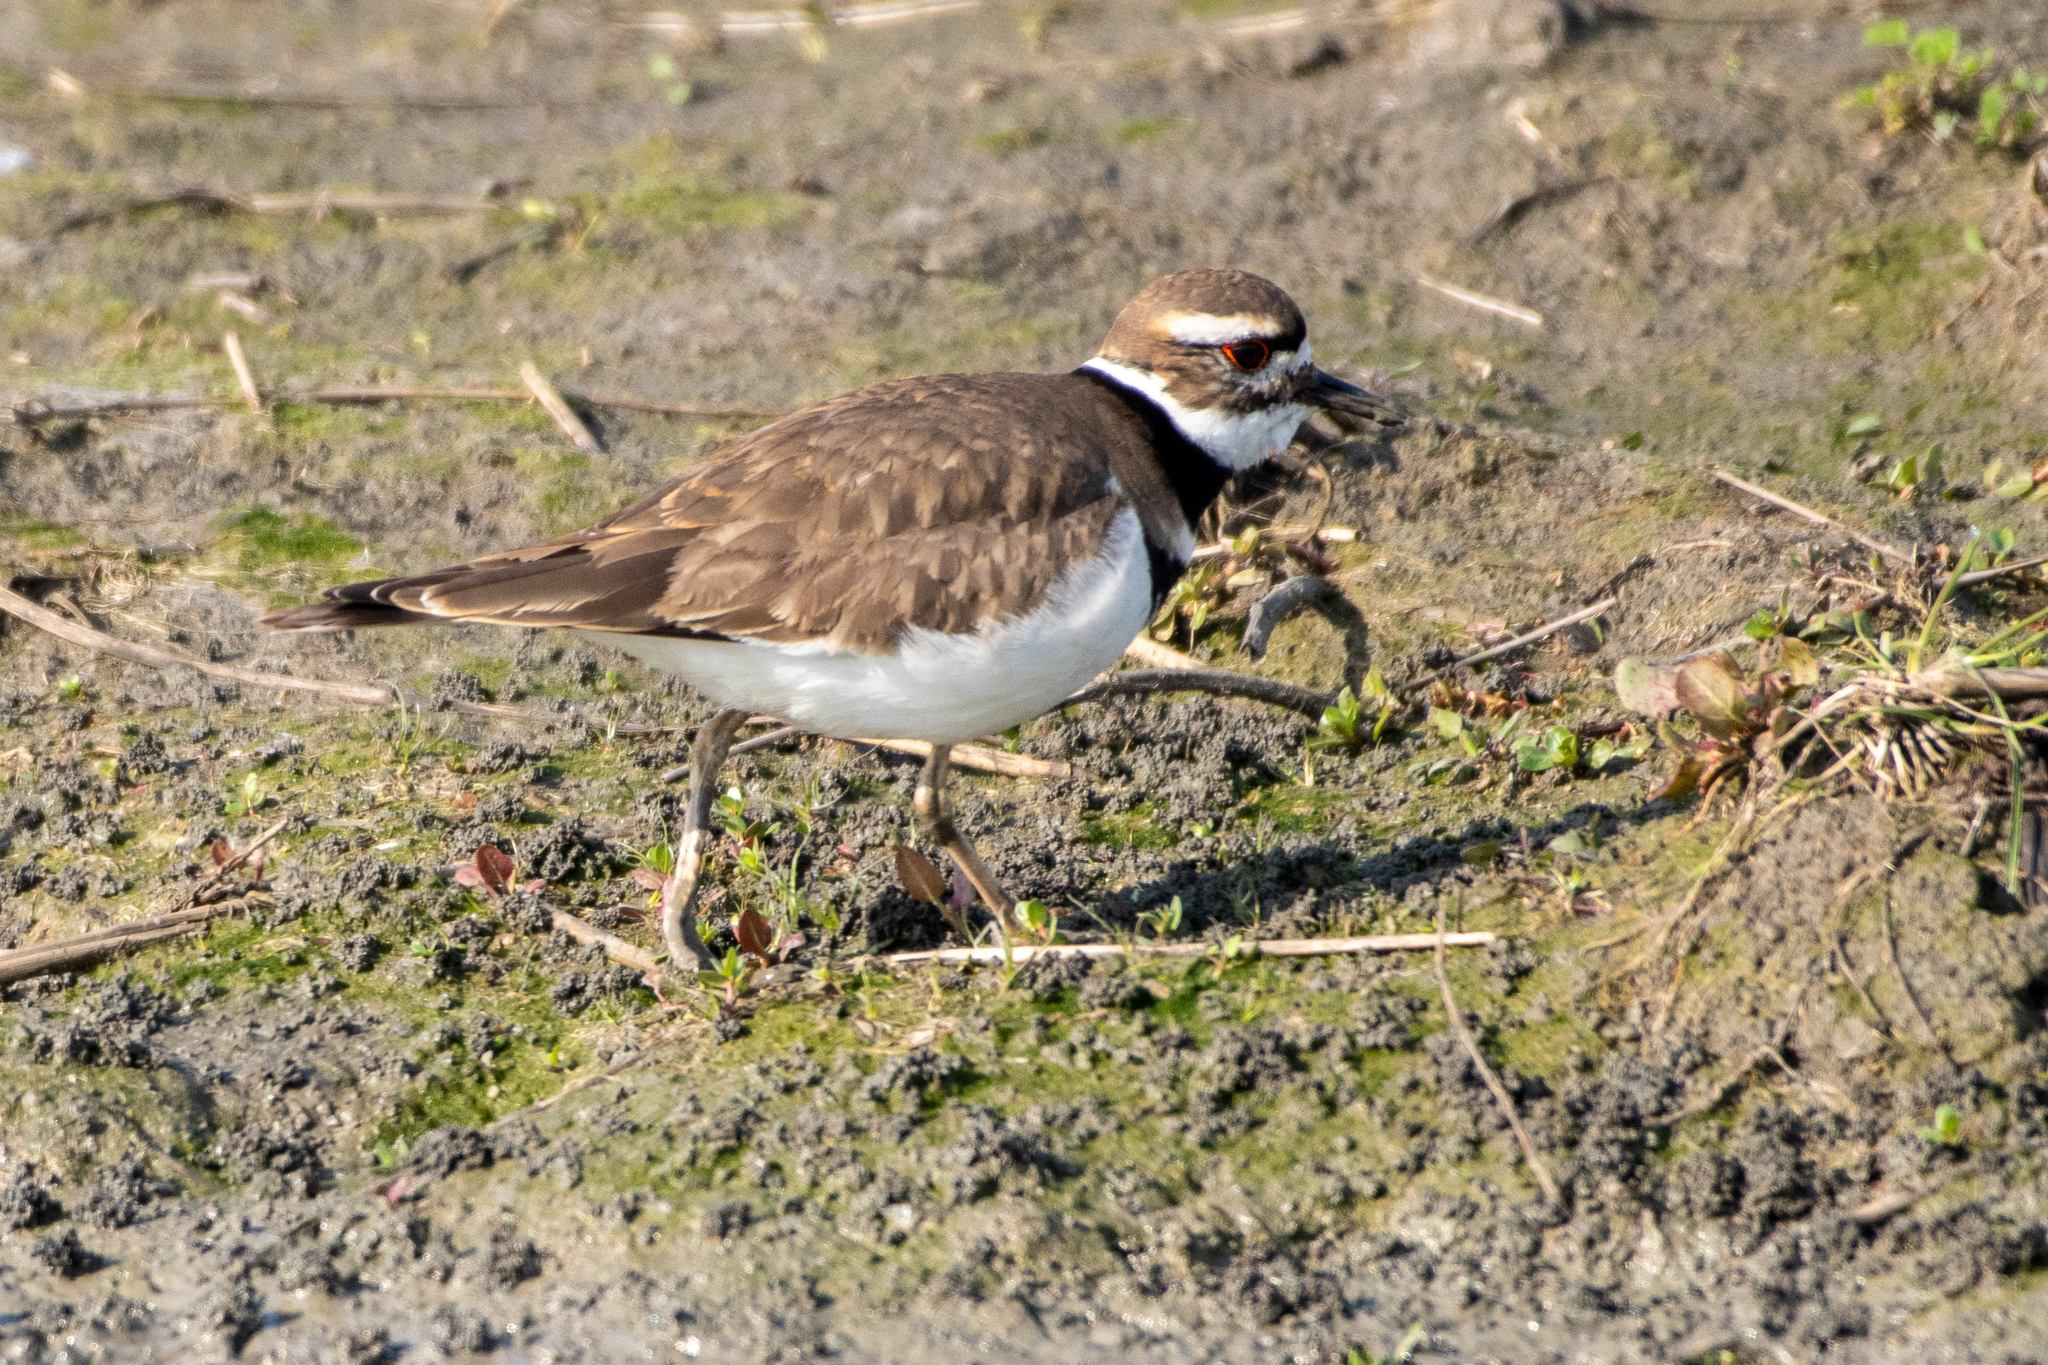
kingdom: Animalia
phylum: Chordata
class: Aves
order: Charadriiformes
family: Charadriidae
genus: Charadrius
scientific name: Charadrius vociferus
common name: Killdeer
